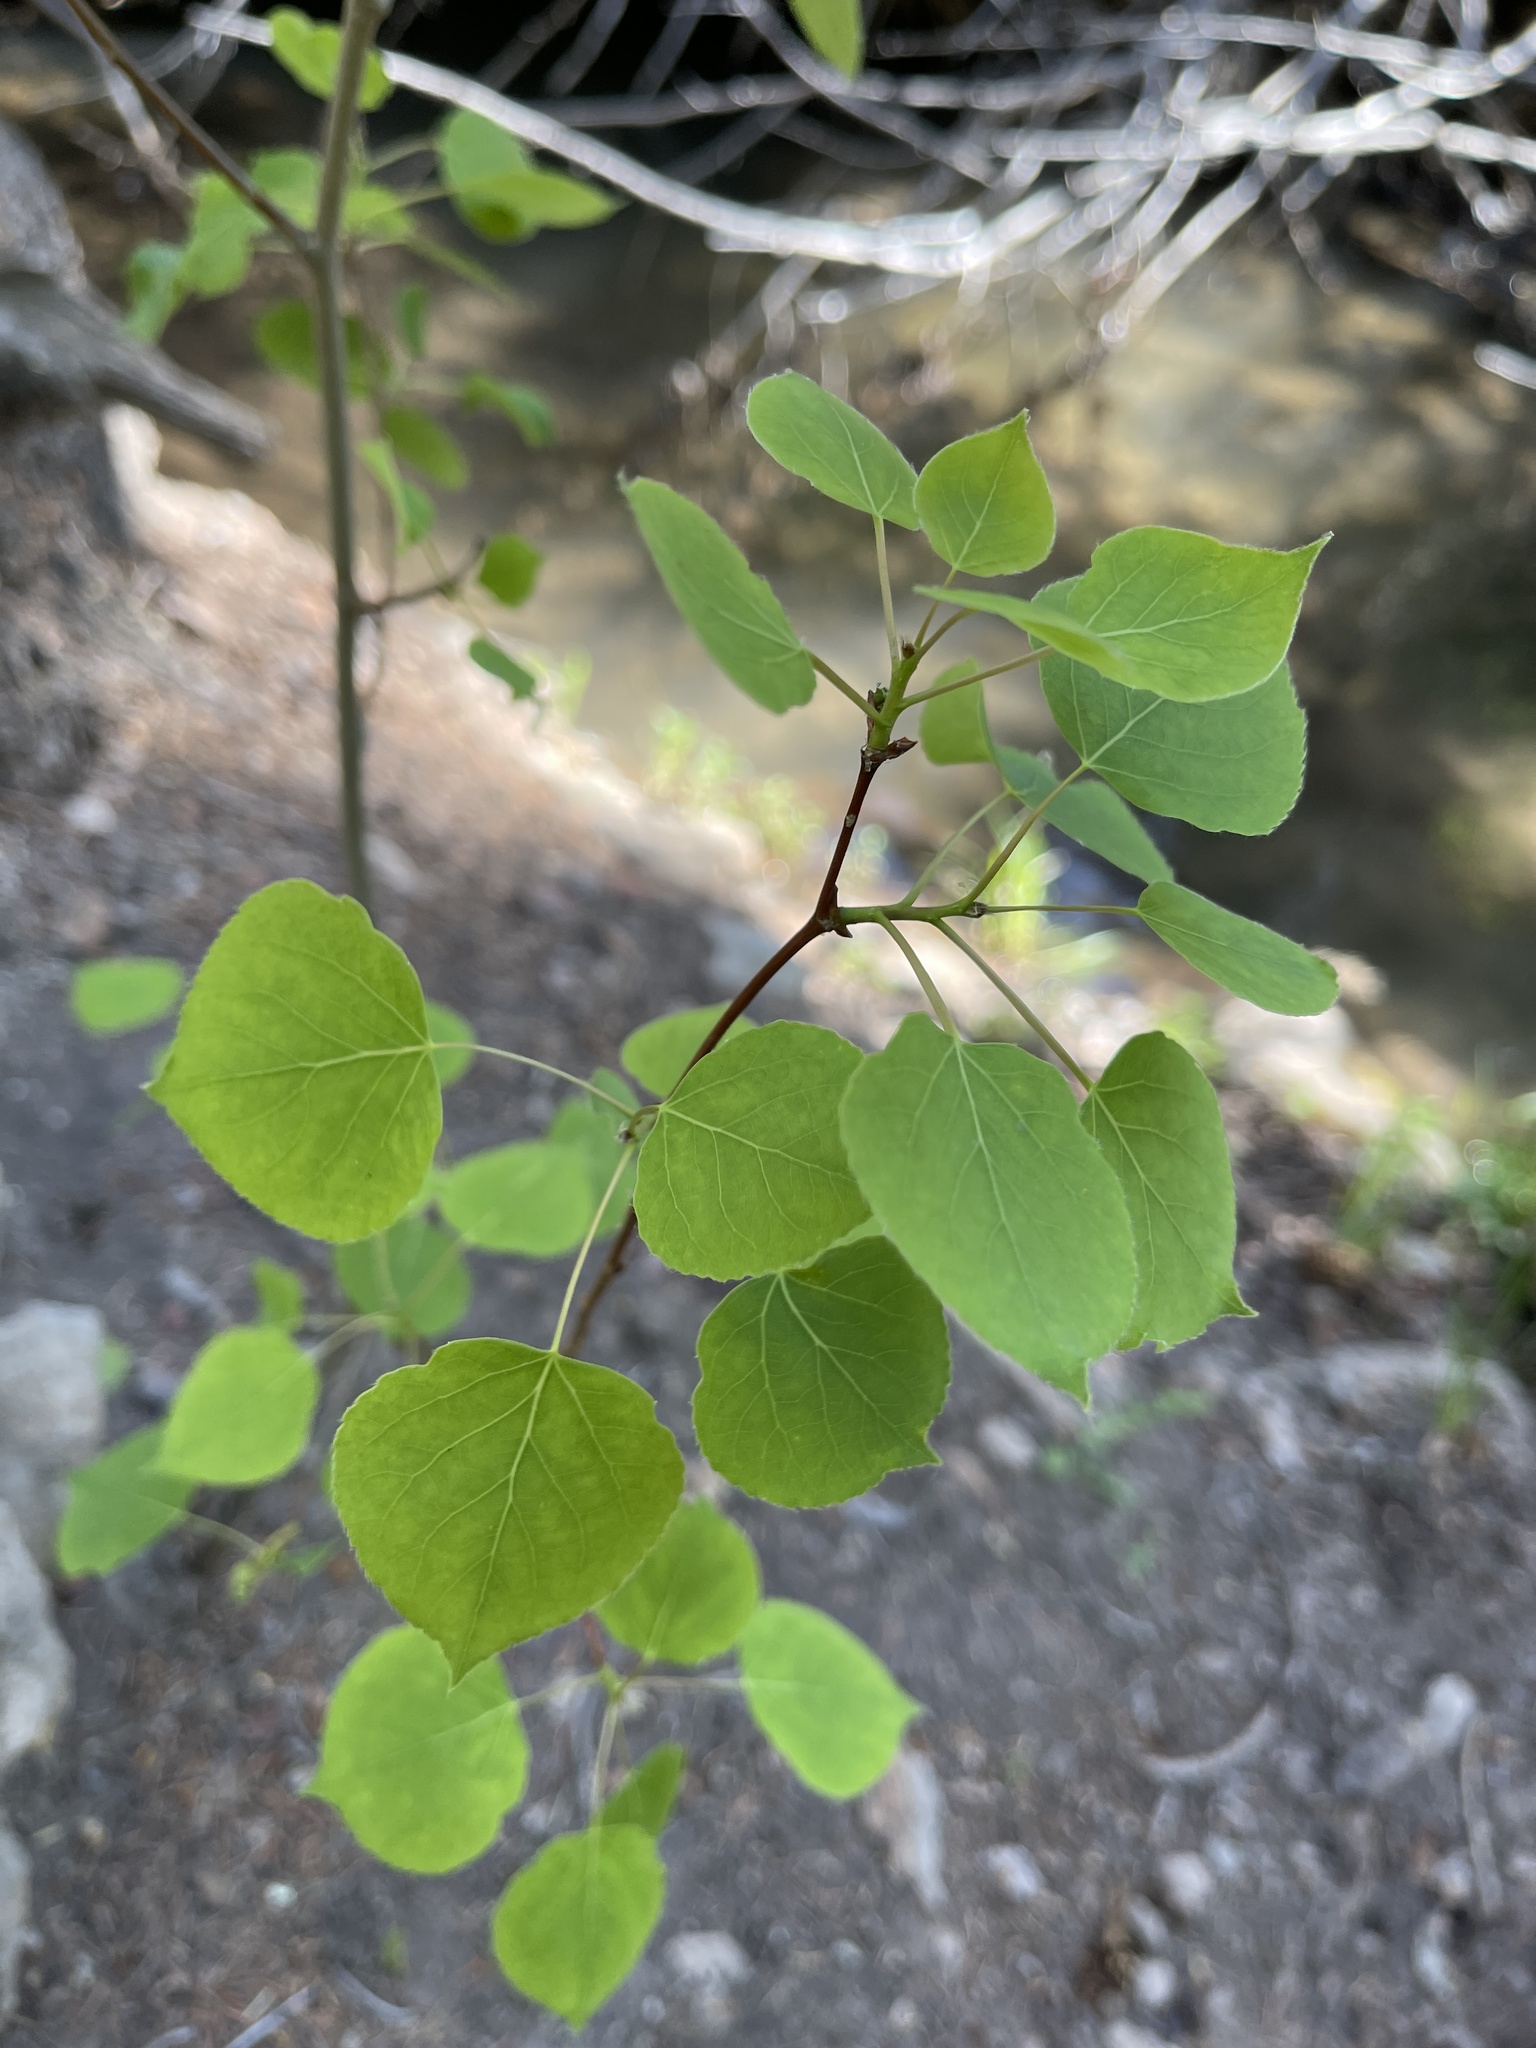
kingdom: Plantae
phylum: Tracheophyta
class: Magnoliopsida
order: Malpighiales
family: Salicaceae
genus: Populus
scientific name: Populus tremuloides
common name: Quaking aspen
